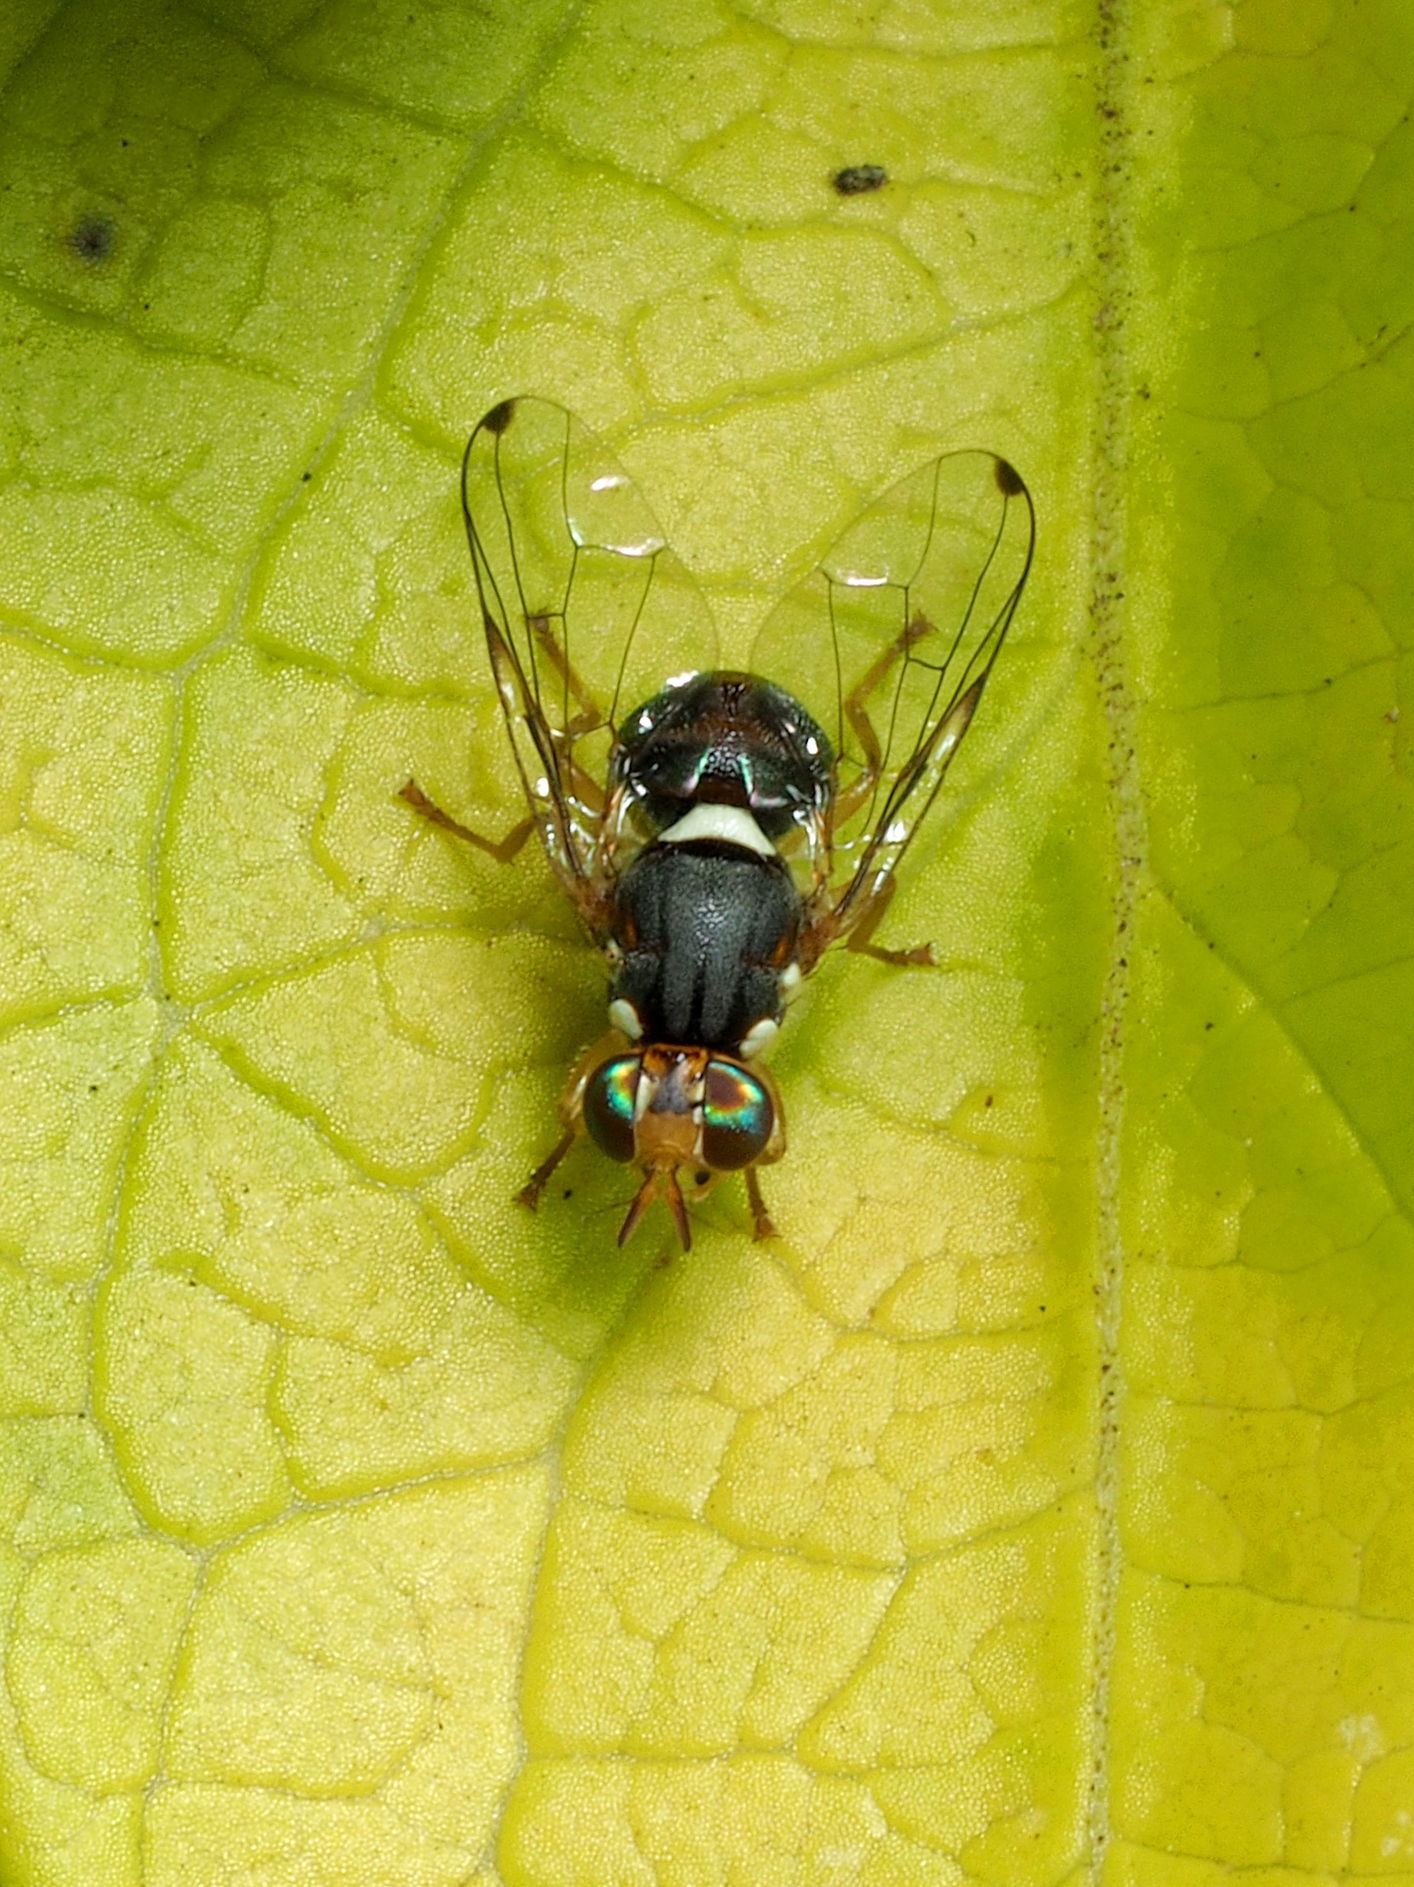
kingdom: Animalia
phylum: Arthropoda
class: Insecta
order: Diptera
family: Tephritidae
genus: Bactrocera
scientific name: Bactrocera oleae
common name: Olive fruit fly
